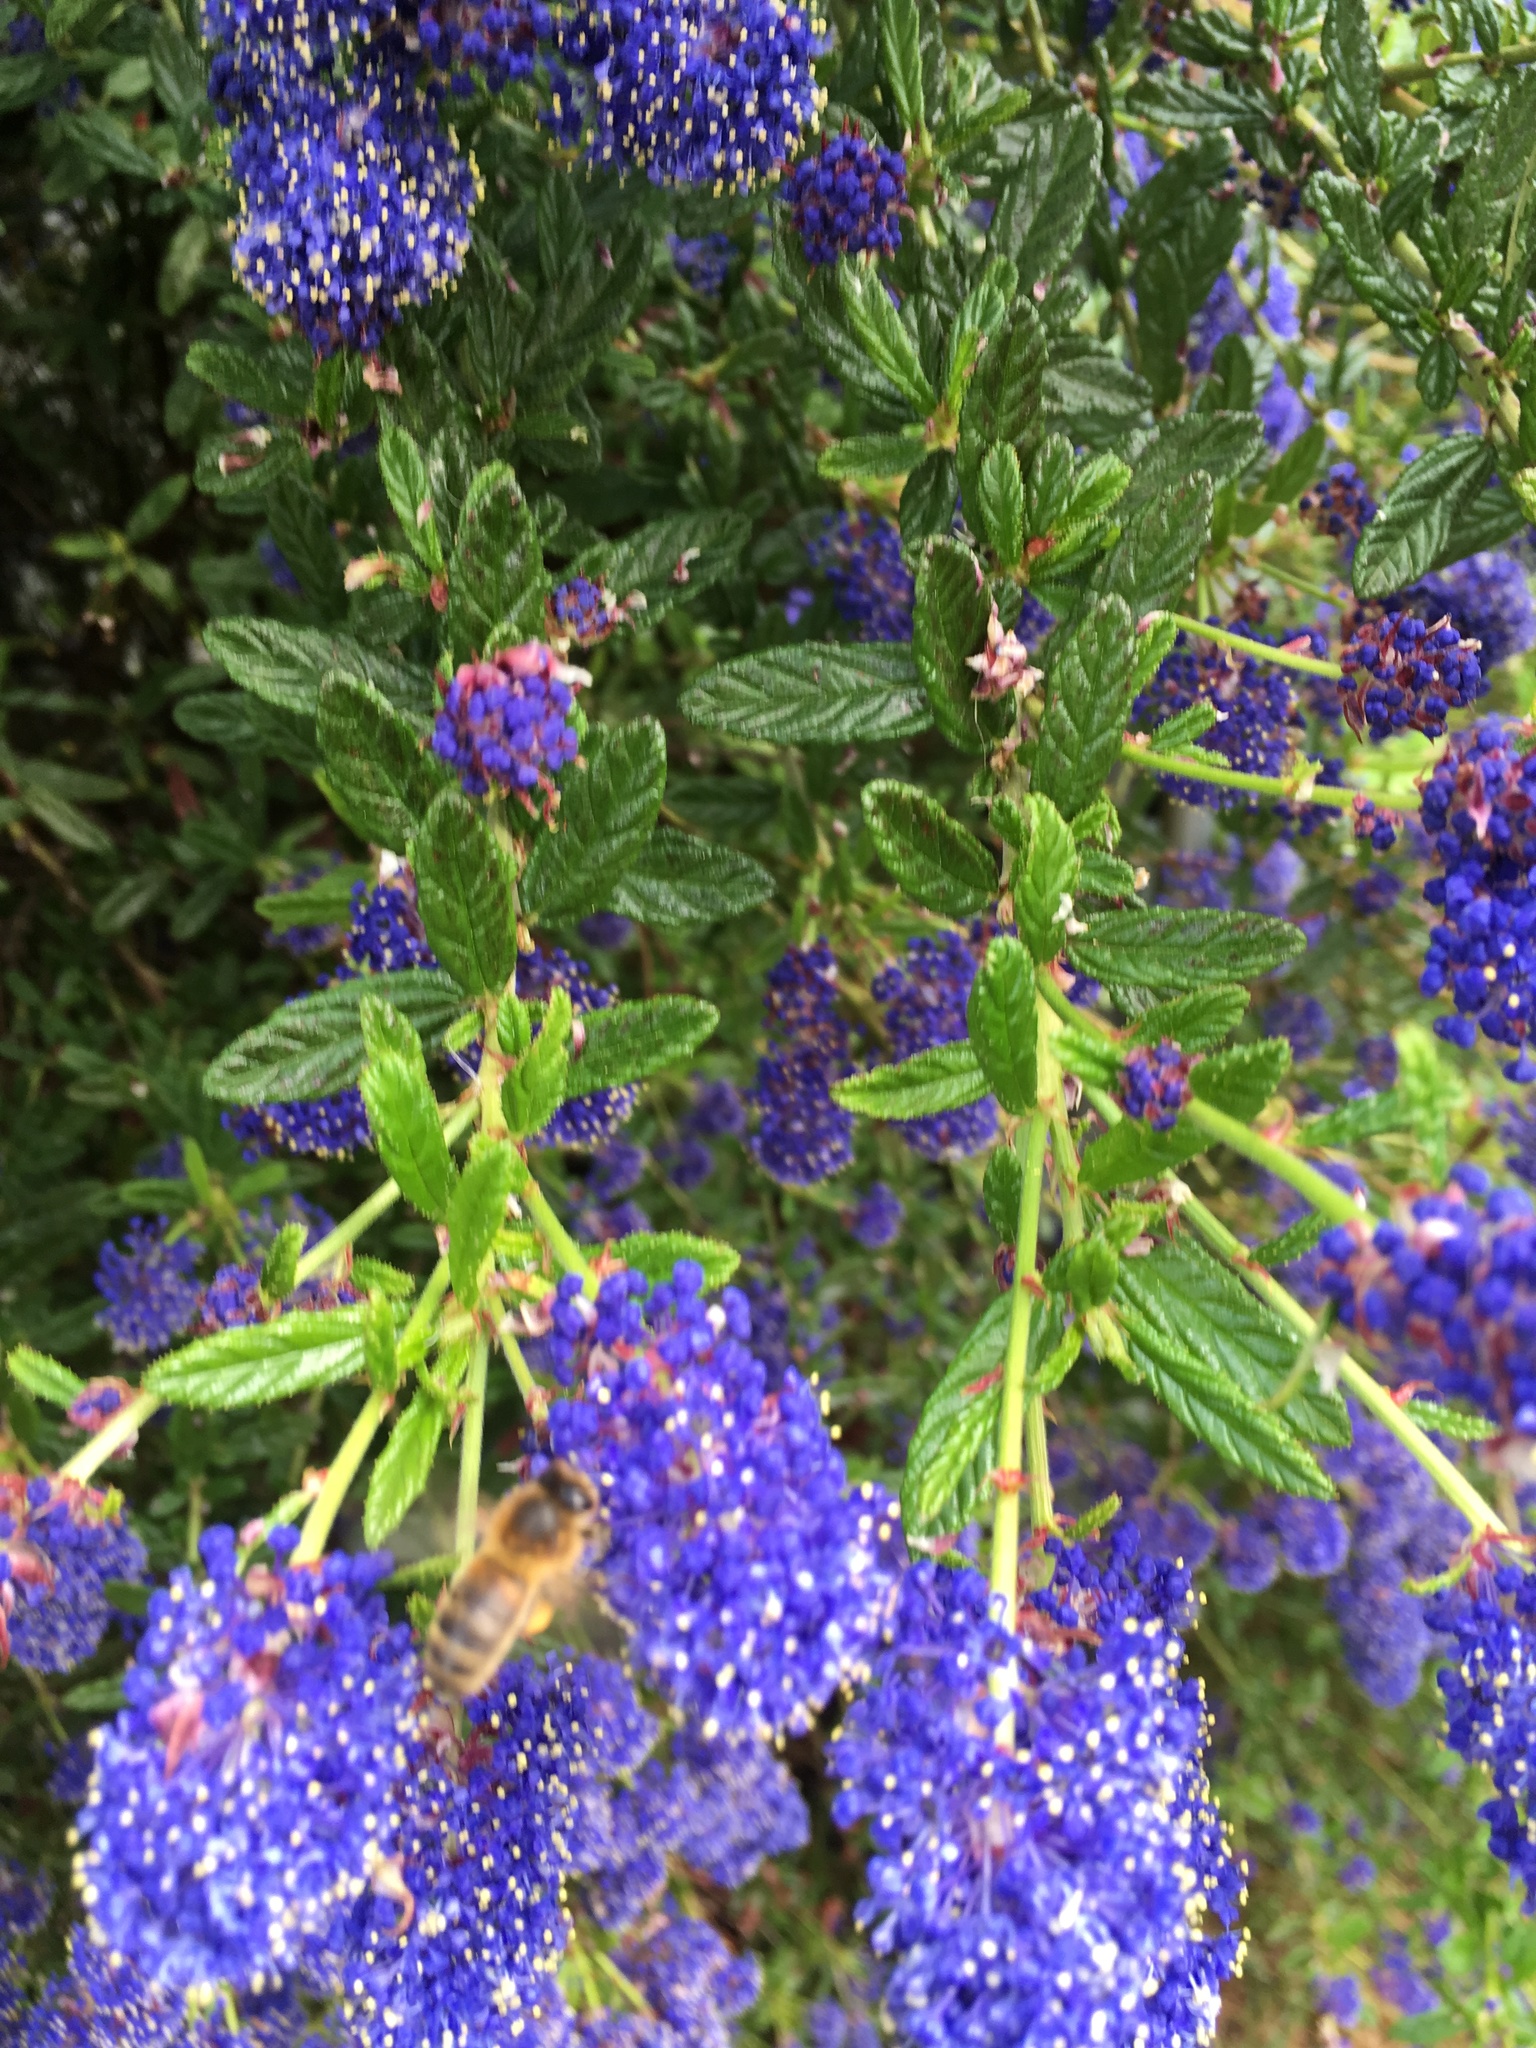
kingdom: Animalia
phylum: Arthropoda
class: Insecta
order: Hymenoptera
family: Apidae
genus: Apis
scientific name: Apis mellifera
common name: Honey bee
